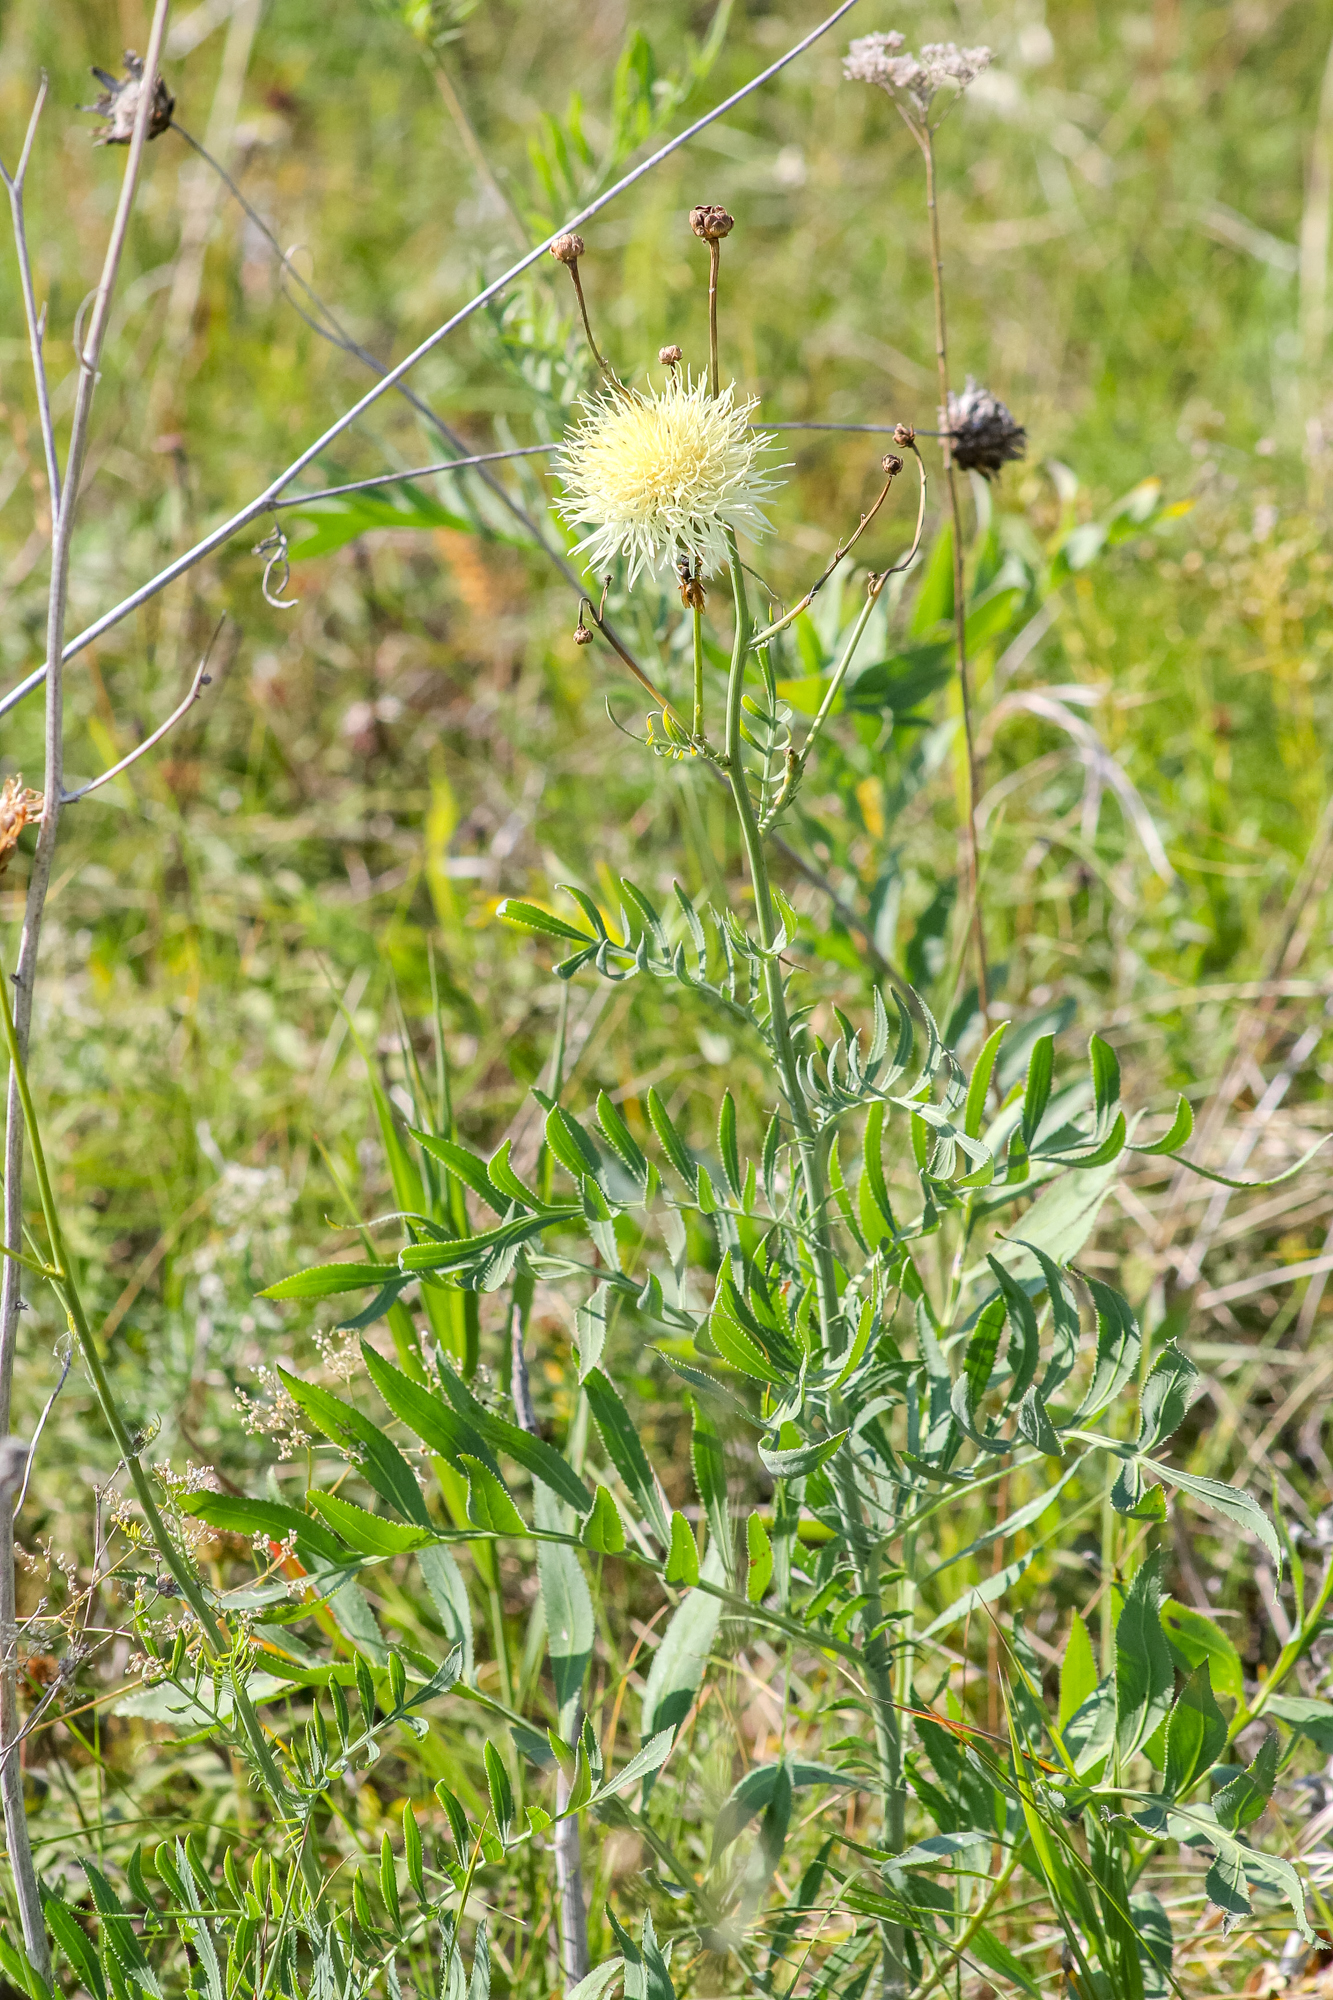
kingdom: Plantae
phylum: Tracheophyta
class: Magnoliopsida
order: Asterales
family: Asteraceae
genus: Rhaponticoides
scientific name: Rhaponticoides ruthenica
